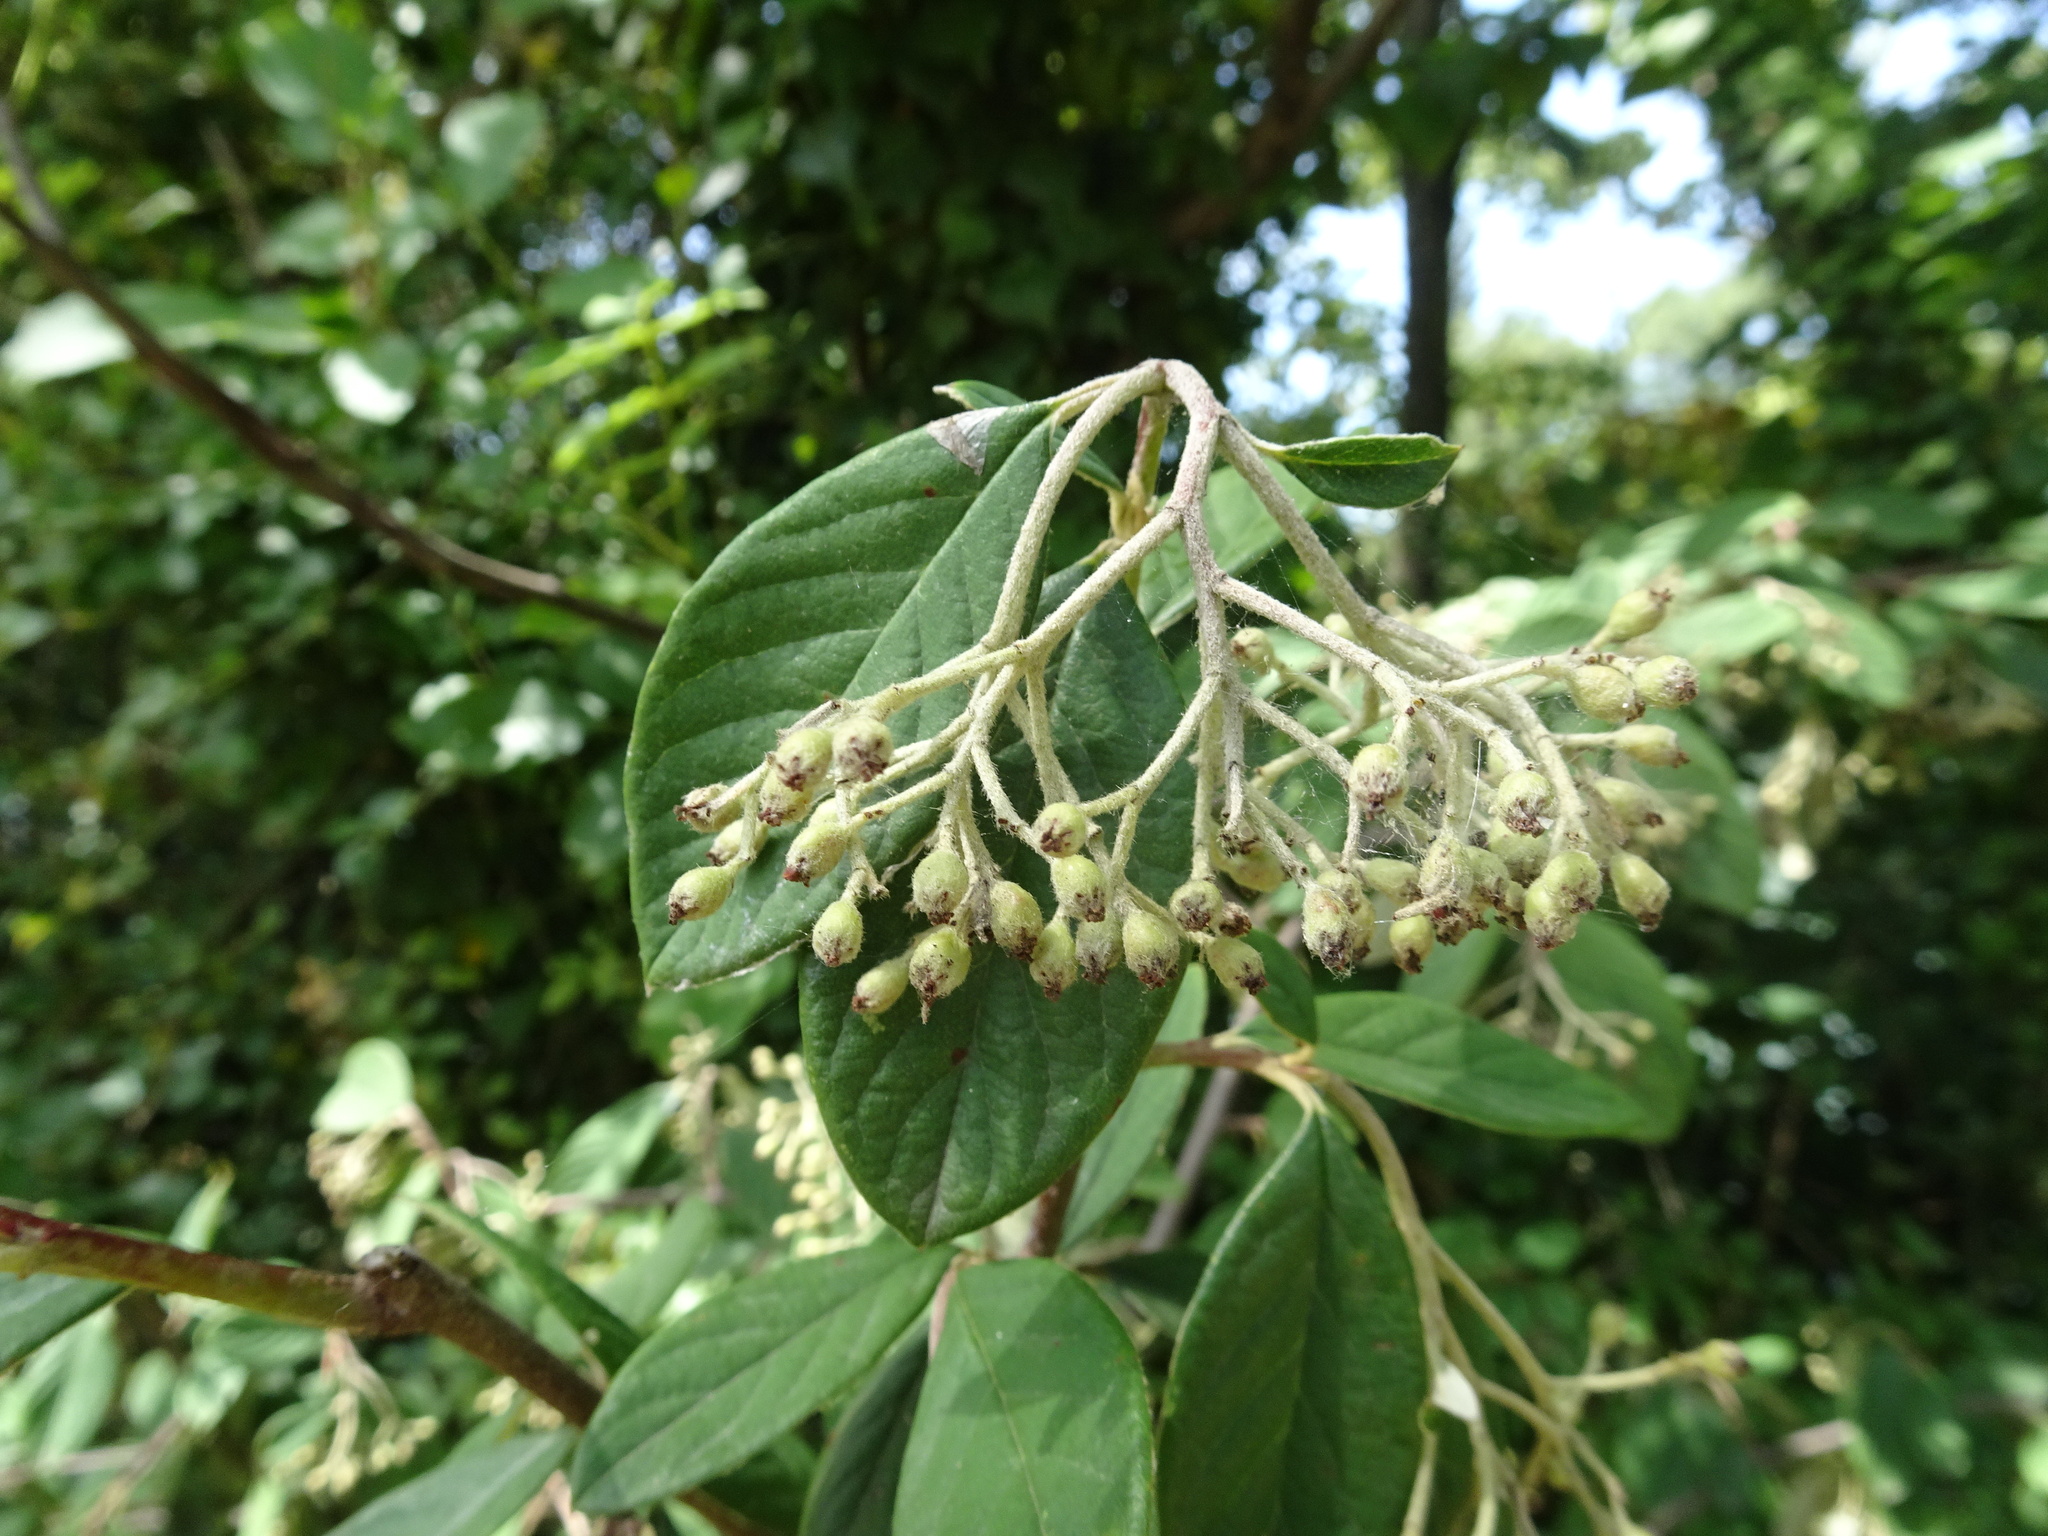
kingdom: Plantae
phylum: Tracheophyta
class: Magnoliopsida
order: Rosales
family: Rosaceae
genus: Cotoneaster
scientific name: Cotoneaster coriaceus
